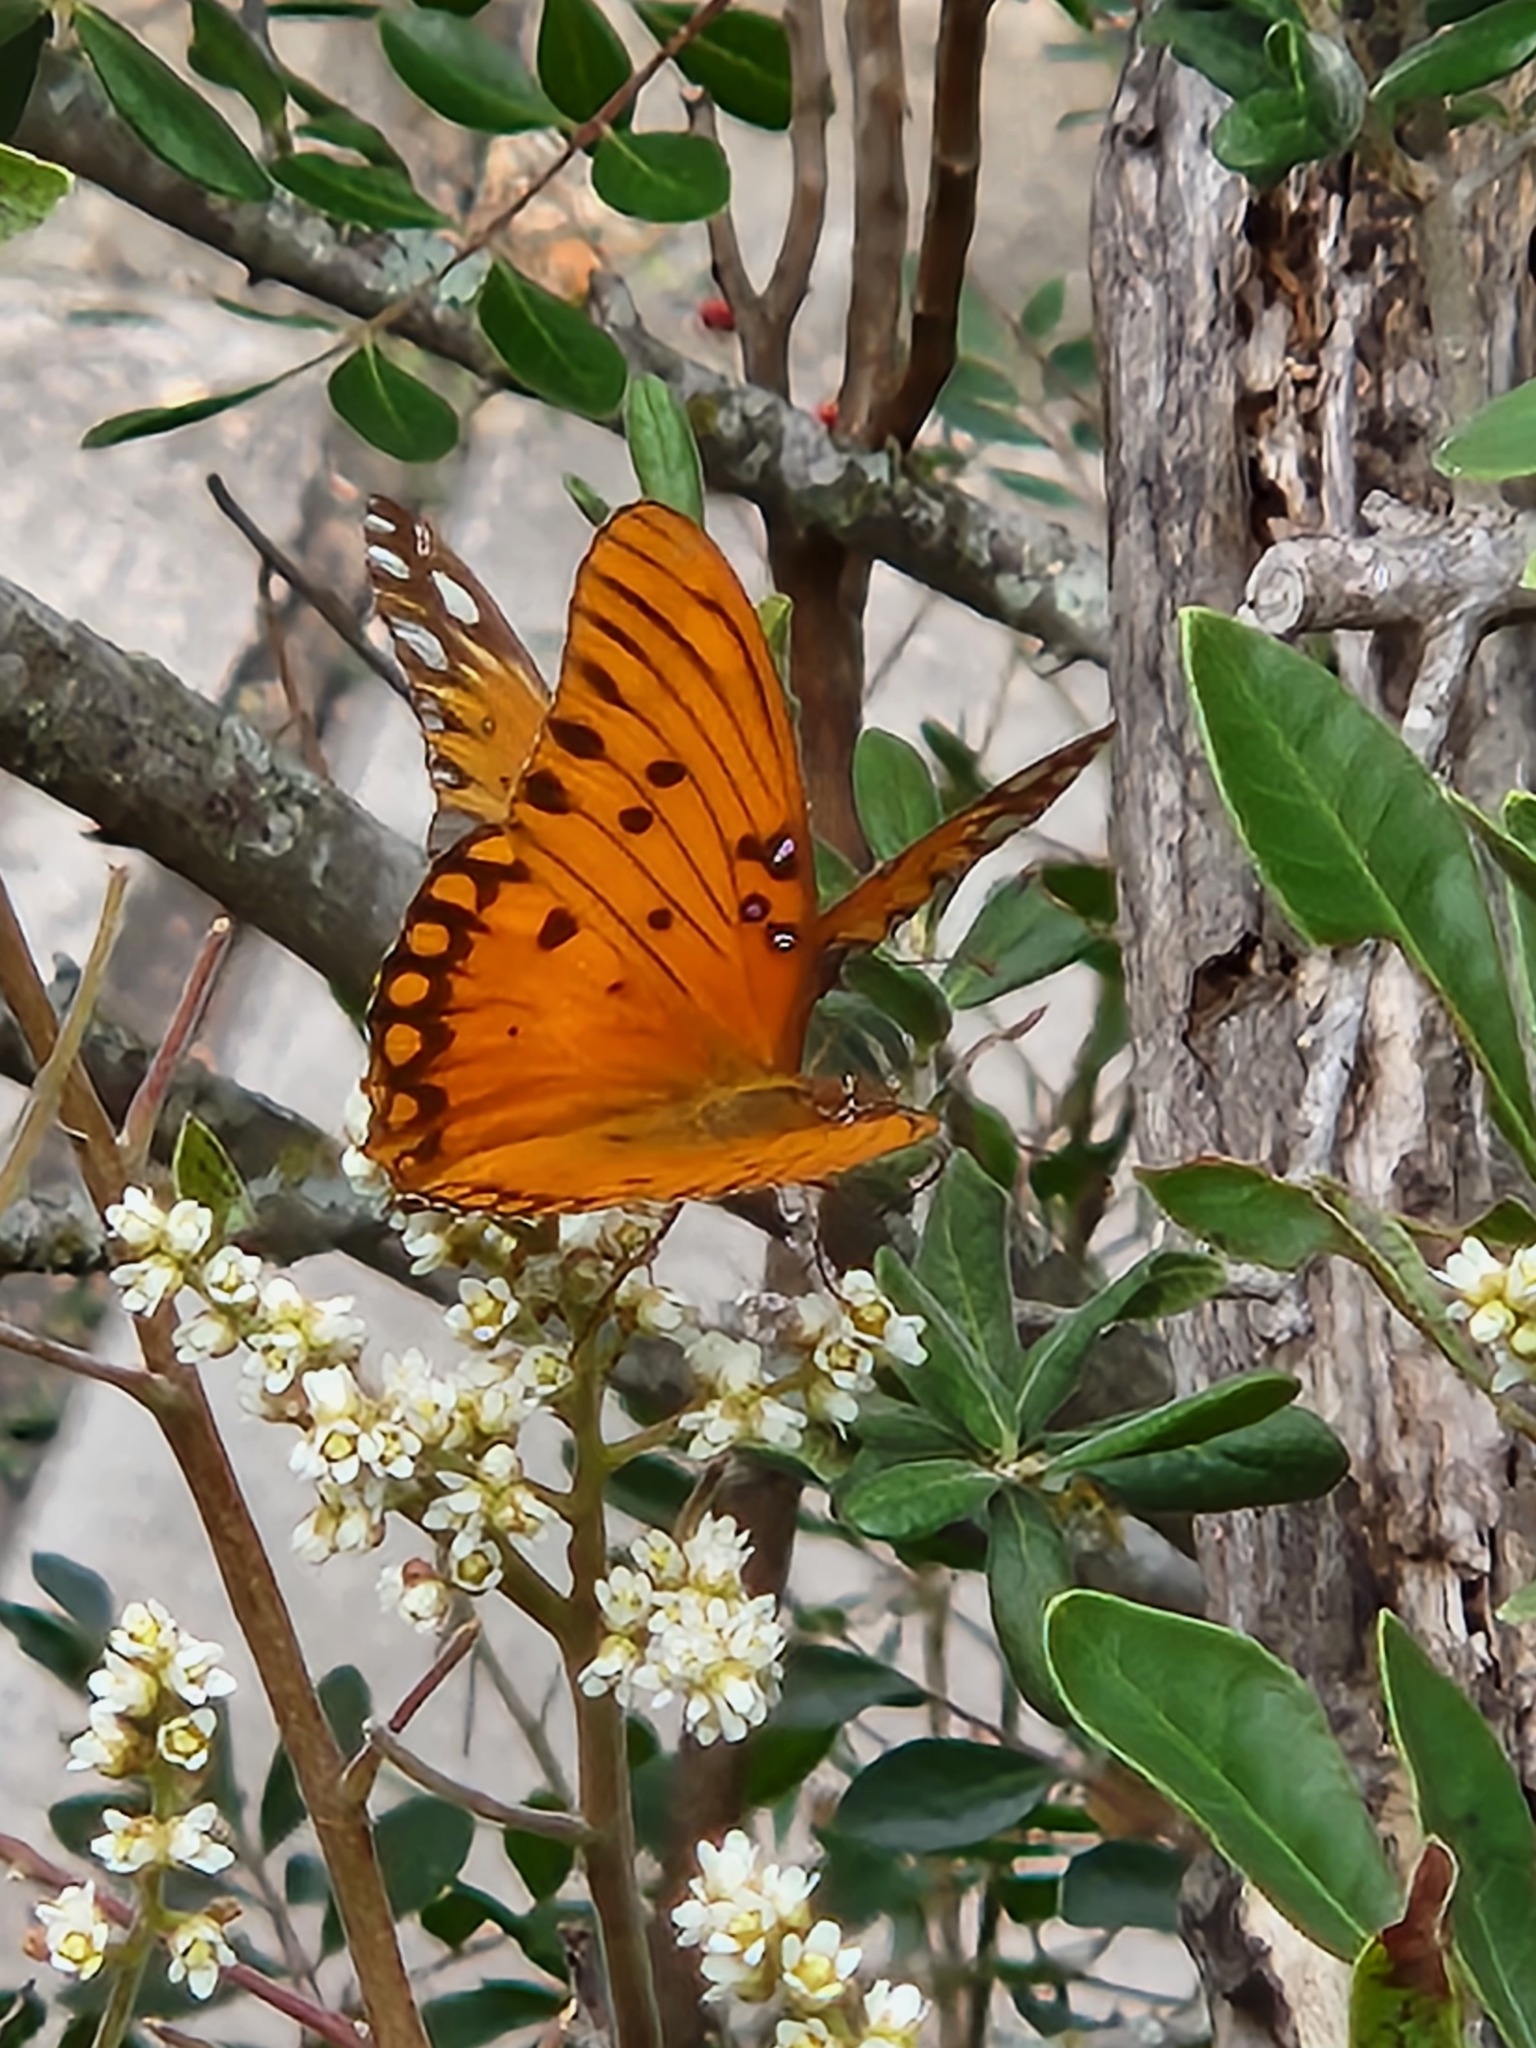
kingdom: Animalia
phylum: Arthropoda
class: Insecta
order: Lepidoptera
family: Nymphalidae
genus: Dione
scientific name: Dione vanillae
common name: Gulf fritillary
